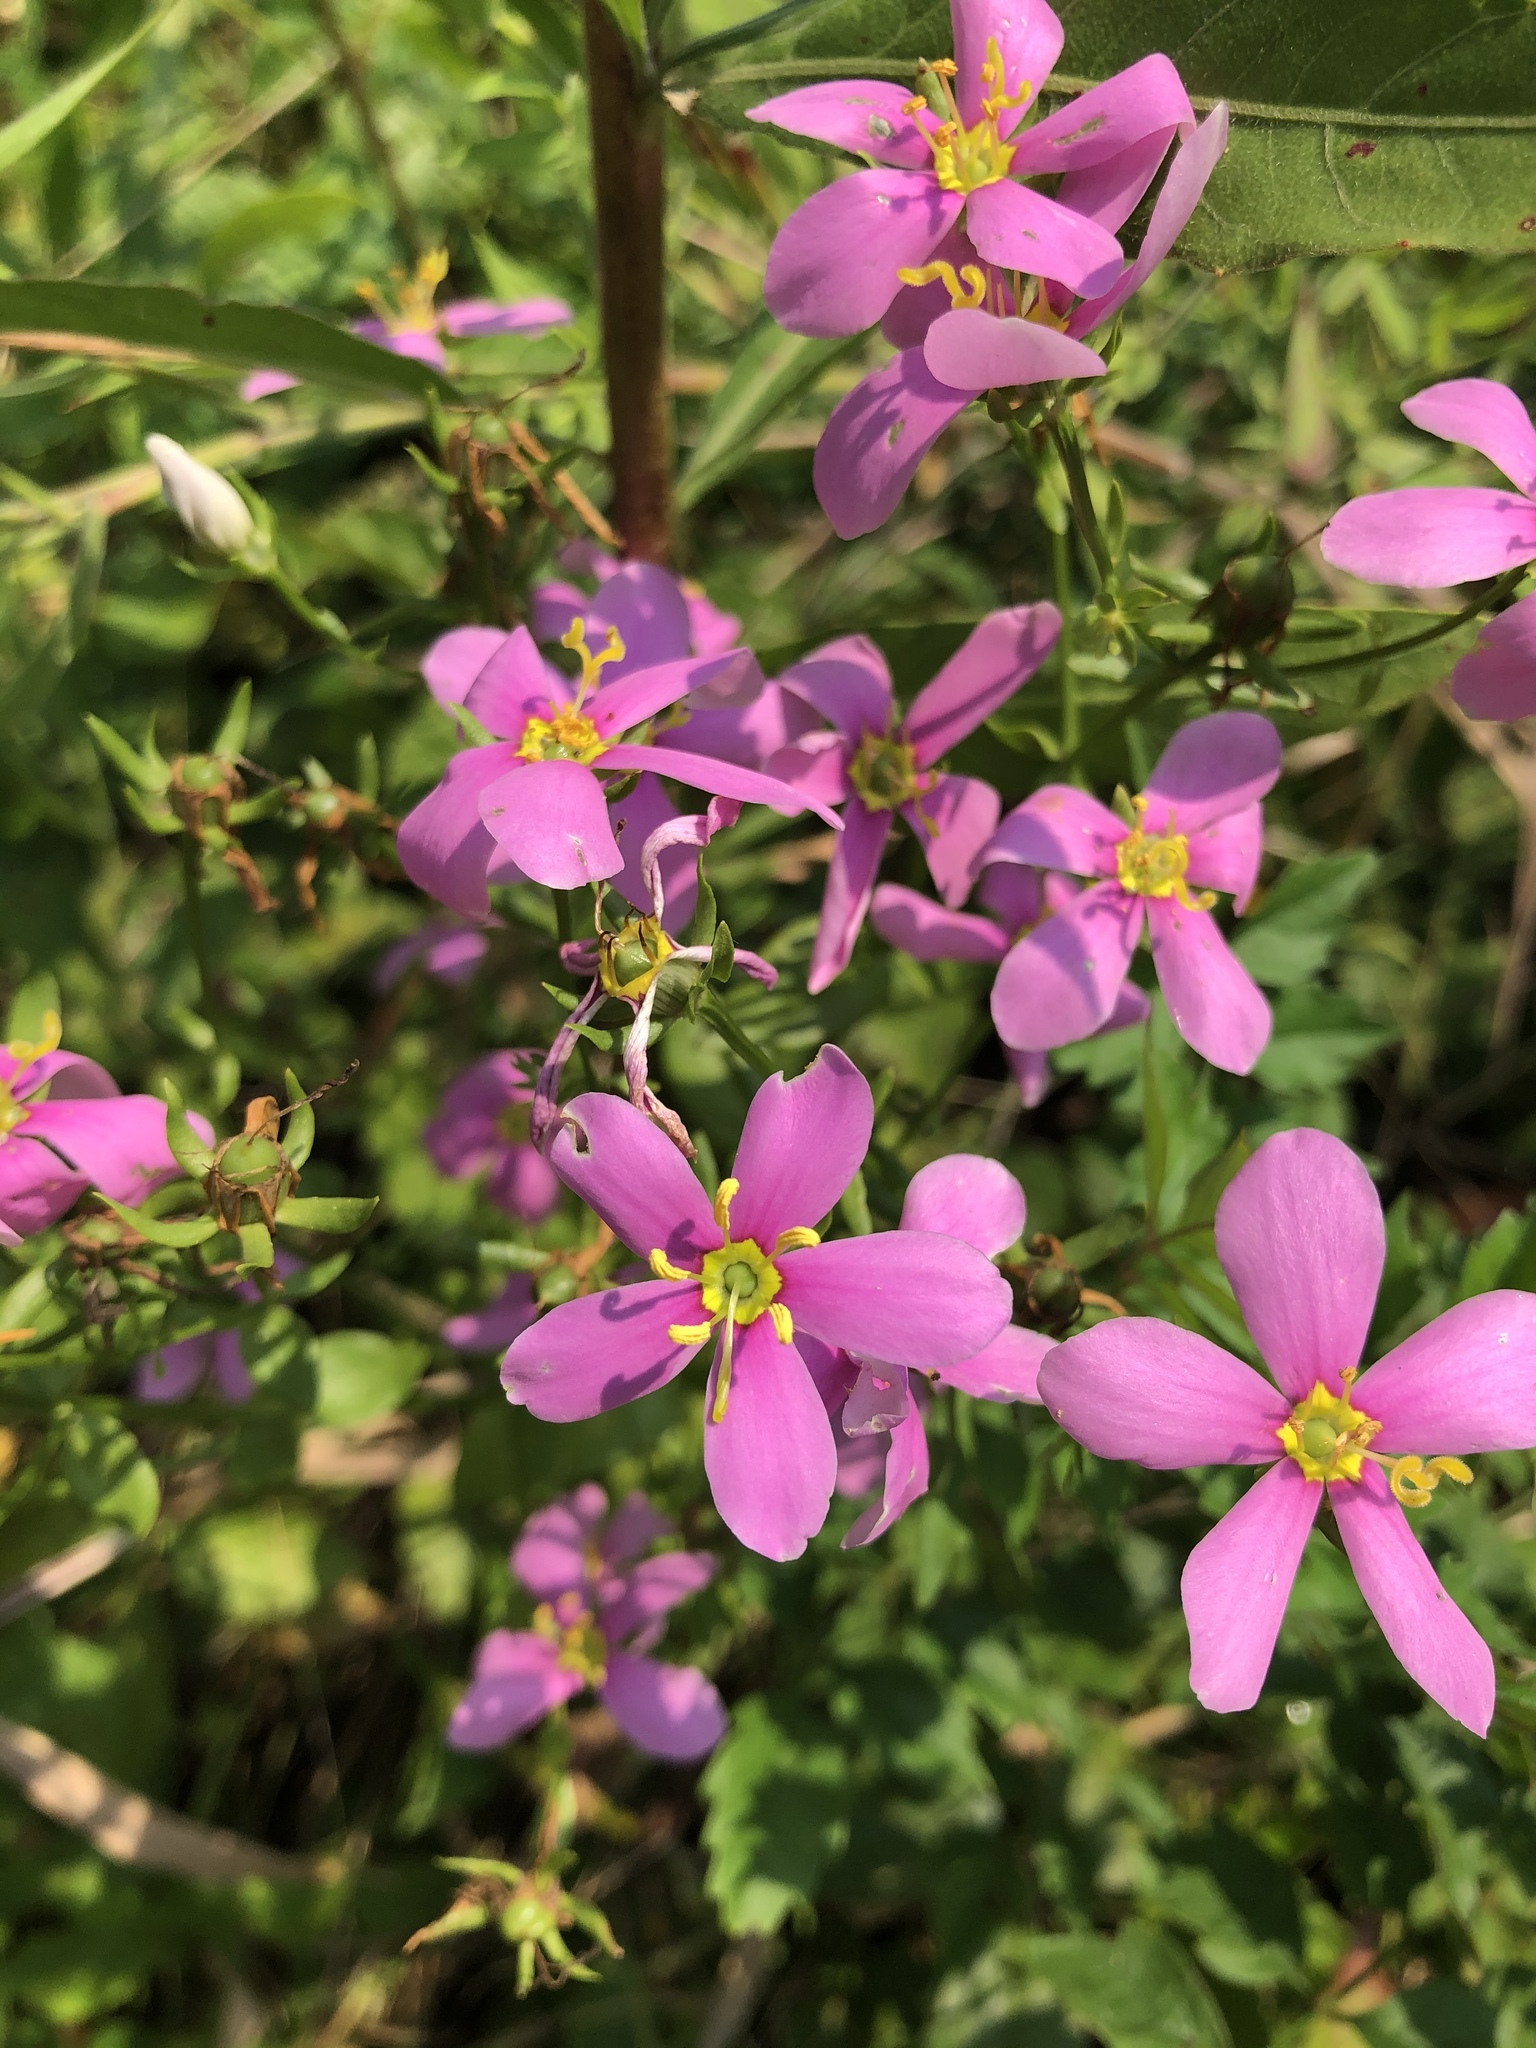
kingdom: Plantae
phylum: Tracheophyta
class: Magnoliopsida
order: Gentianales
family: Gentianaceae
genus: Sabatia
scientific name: Sabatia angularis
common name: Rose-pink
